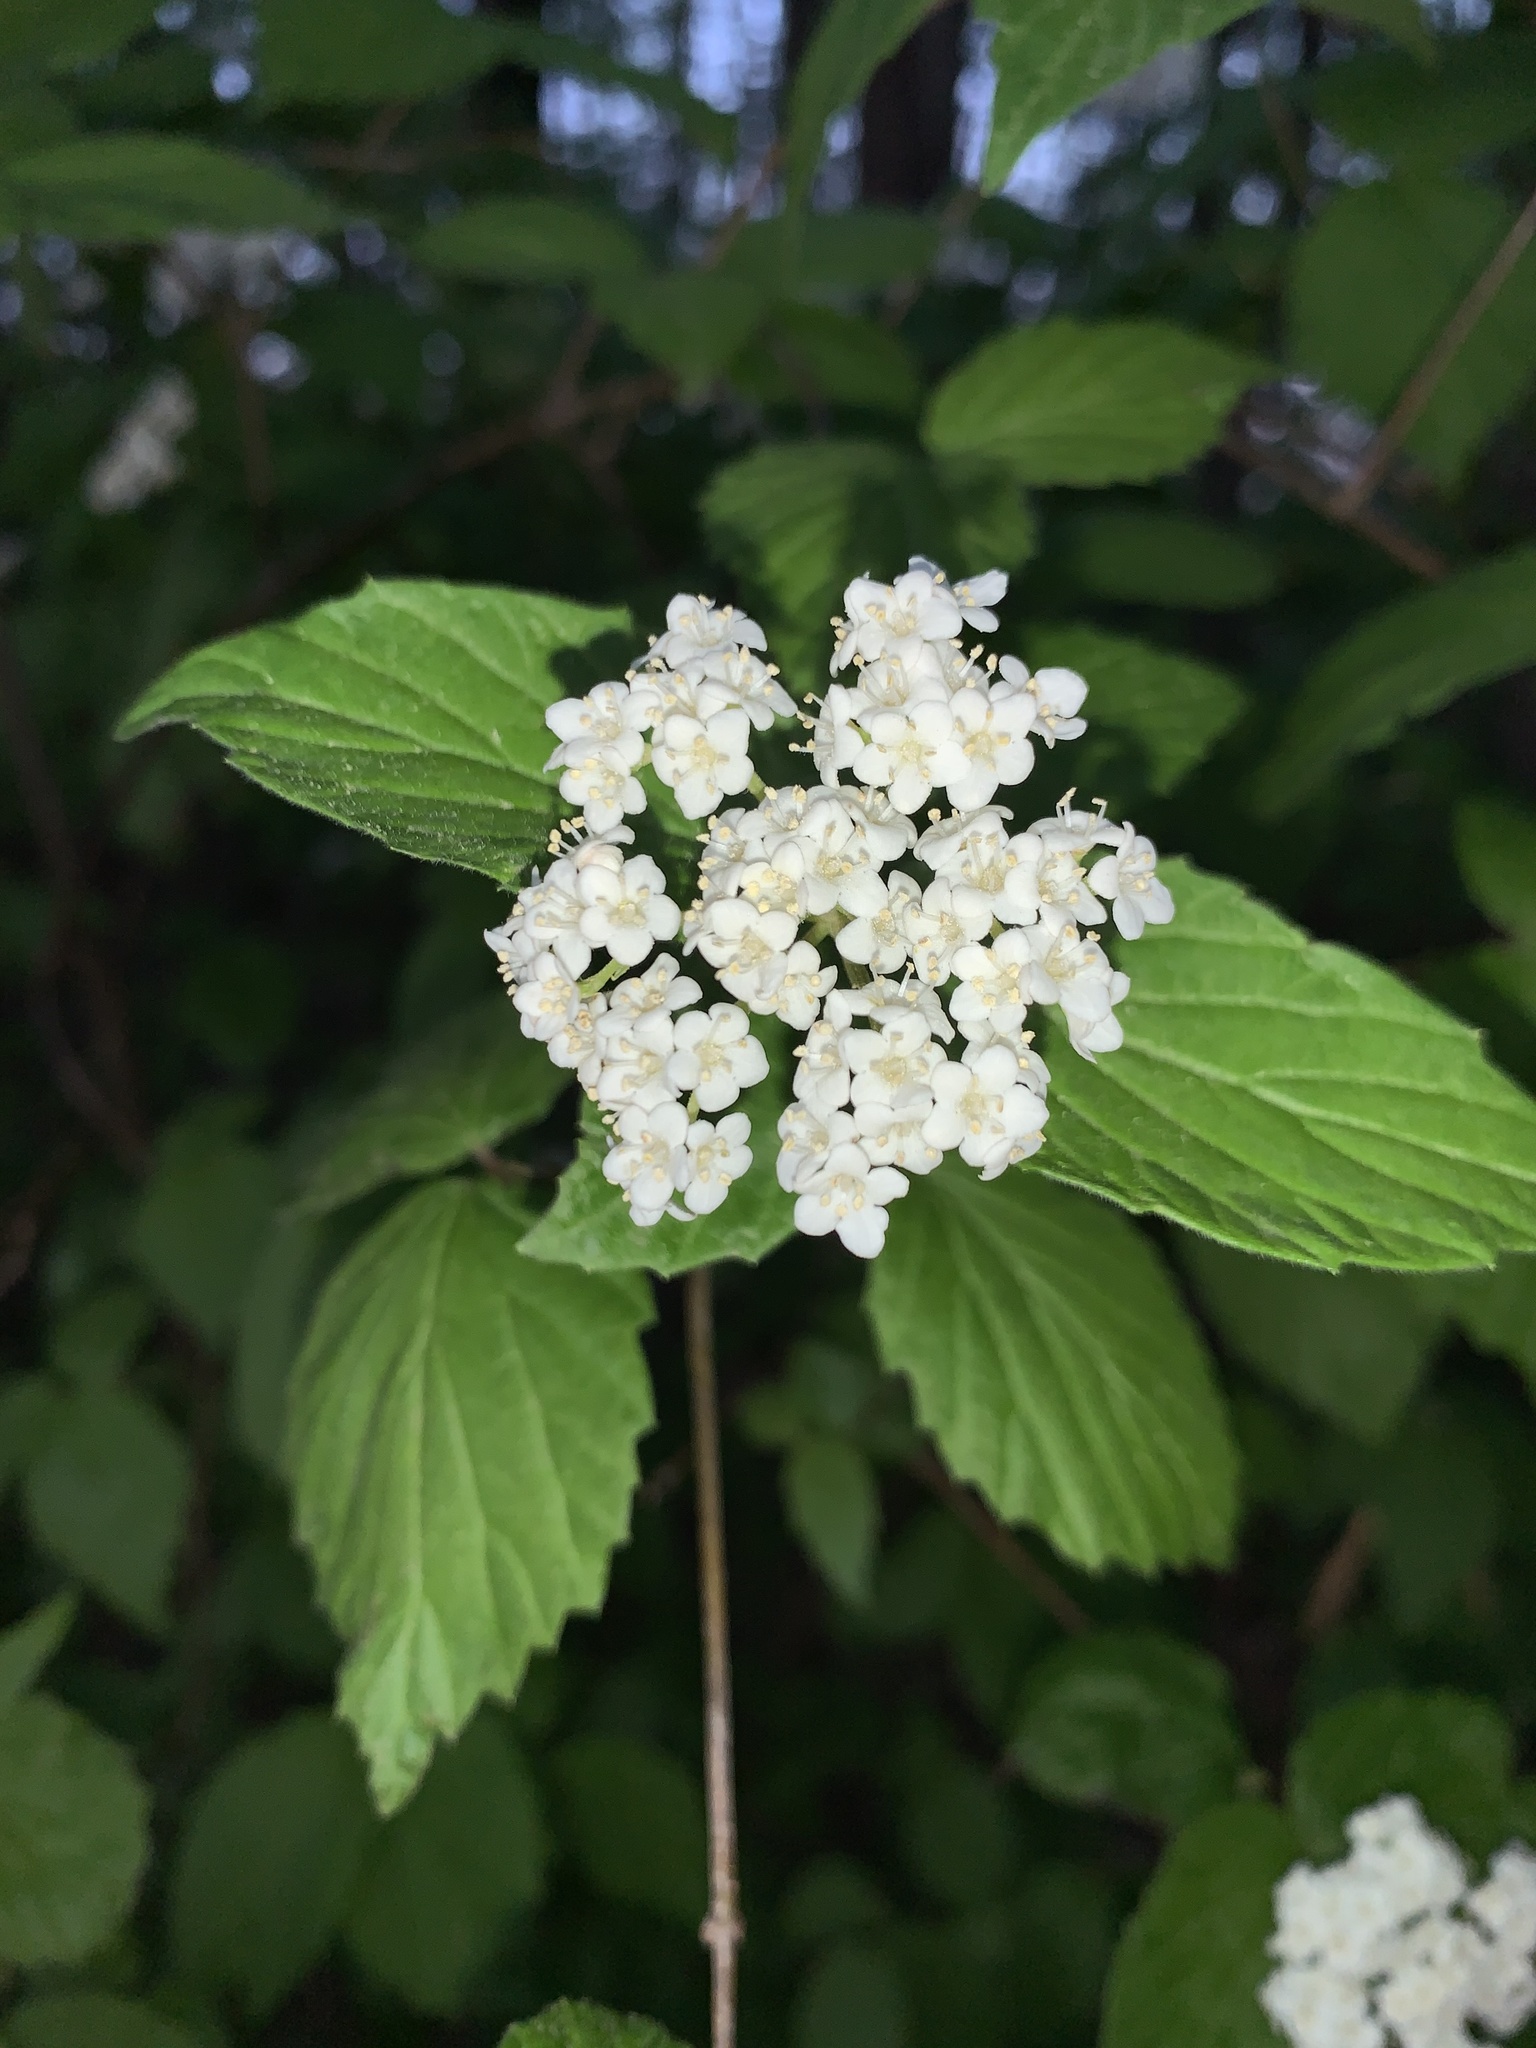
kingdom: Plantae
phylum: Tracheophyta
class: Magnoliopsida
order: Dipsacales
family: Viburnaceae
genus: Viburnum
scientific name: Viburnum rafinesqueanum
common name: Downy arrow-wood
